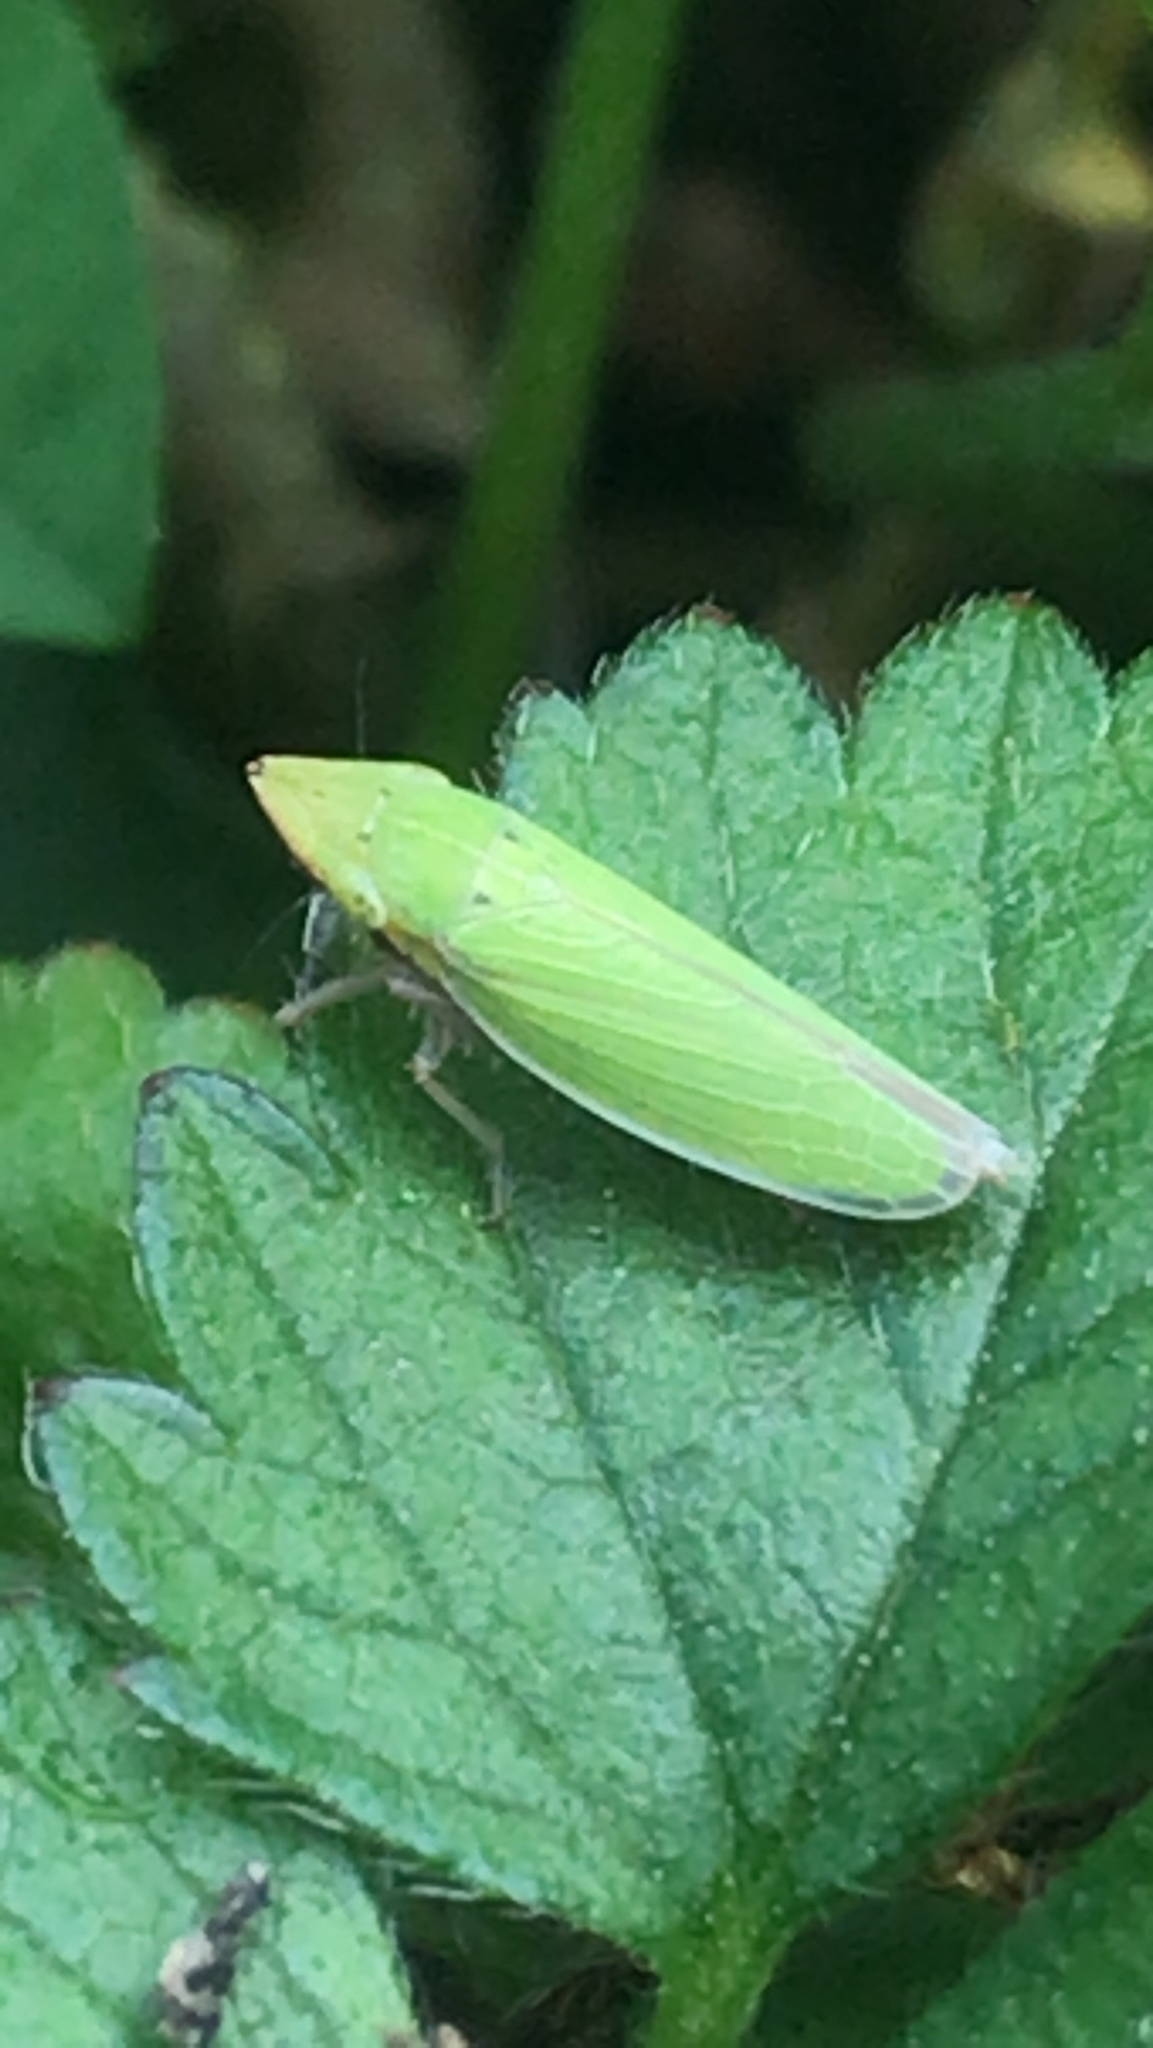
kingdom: Animalia
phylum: Arthropoda
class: Insecta
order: Hemiptera
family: Cicadellidae
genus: Draeculacephala
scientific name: Draeculacephala balli
